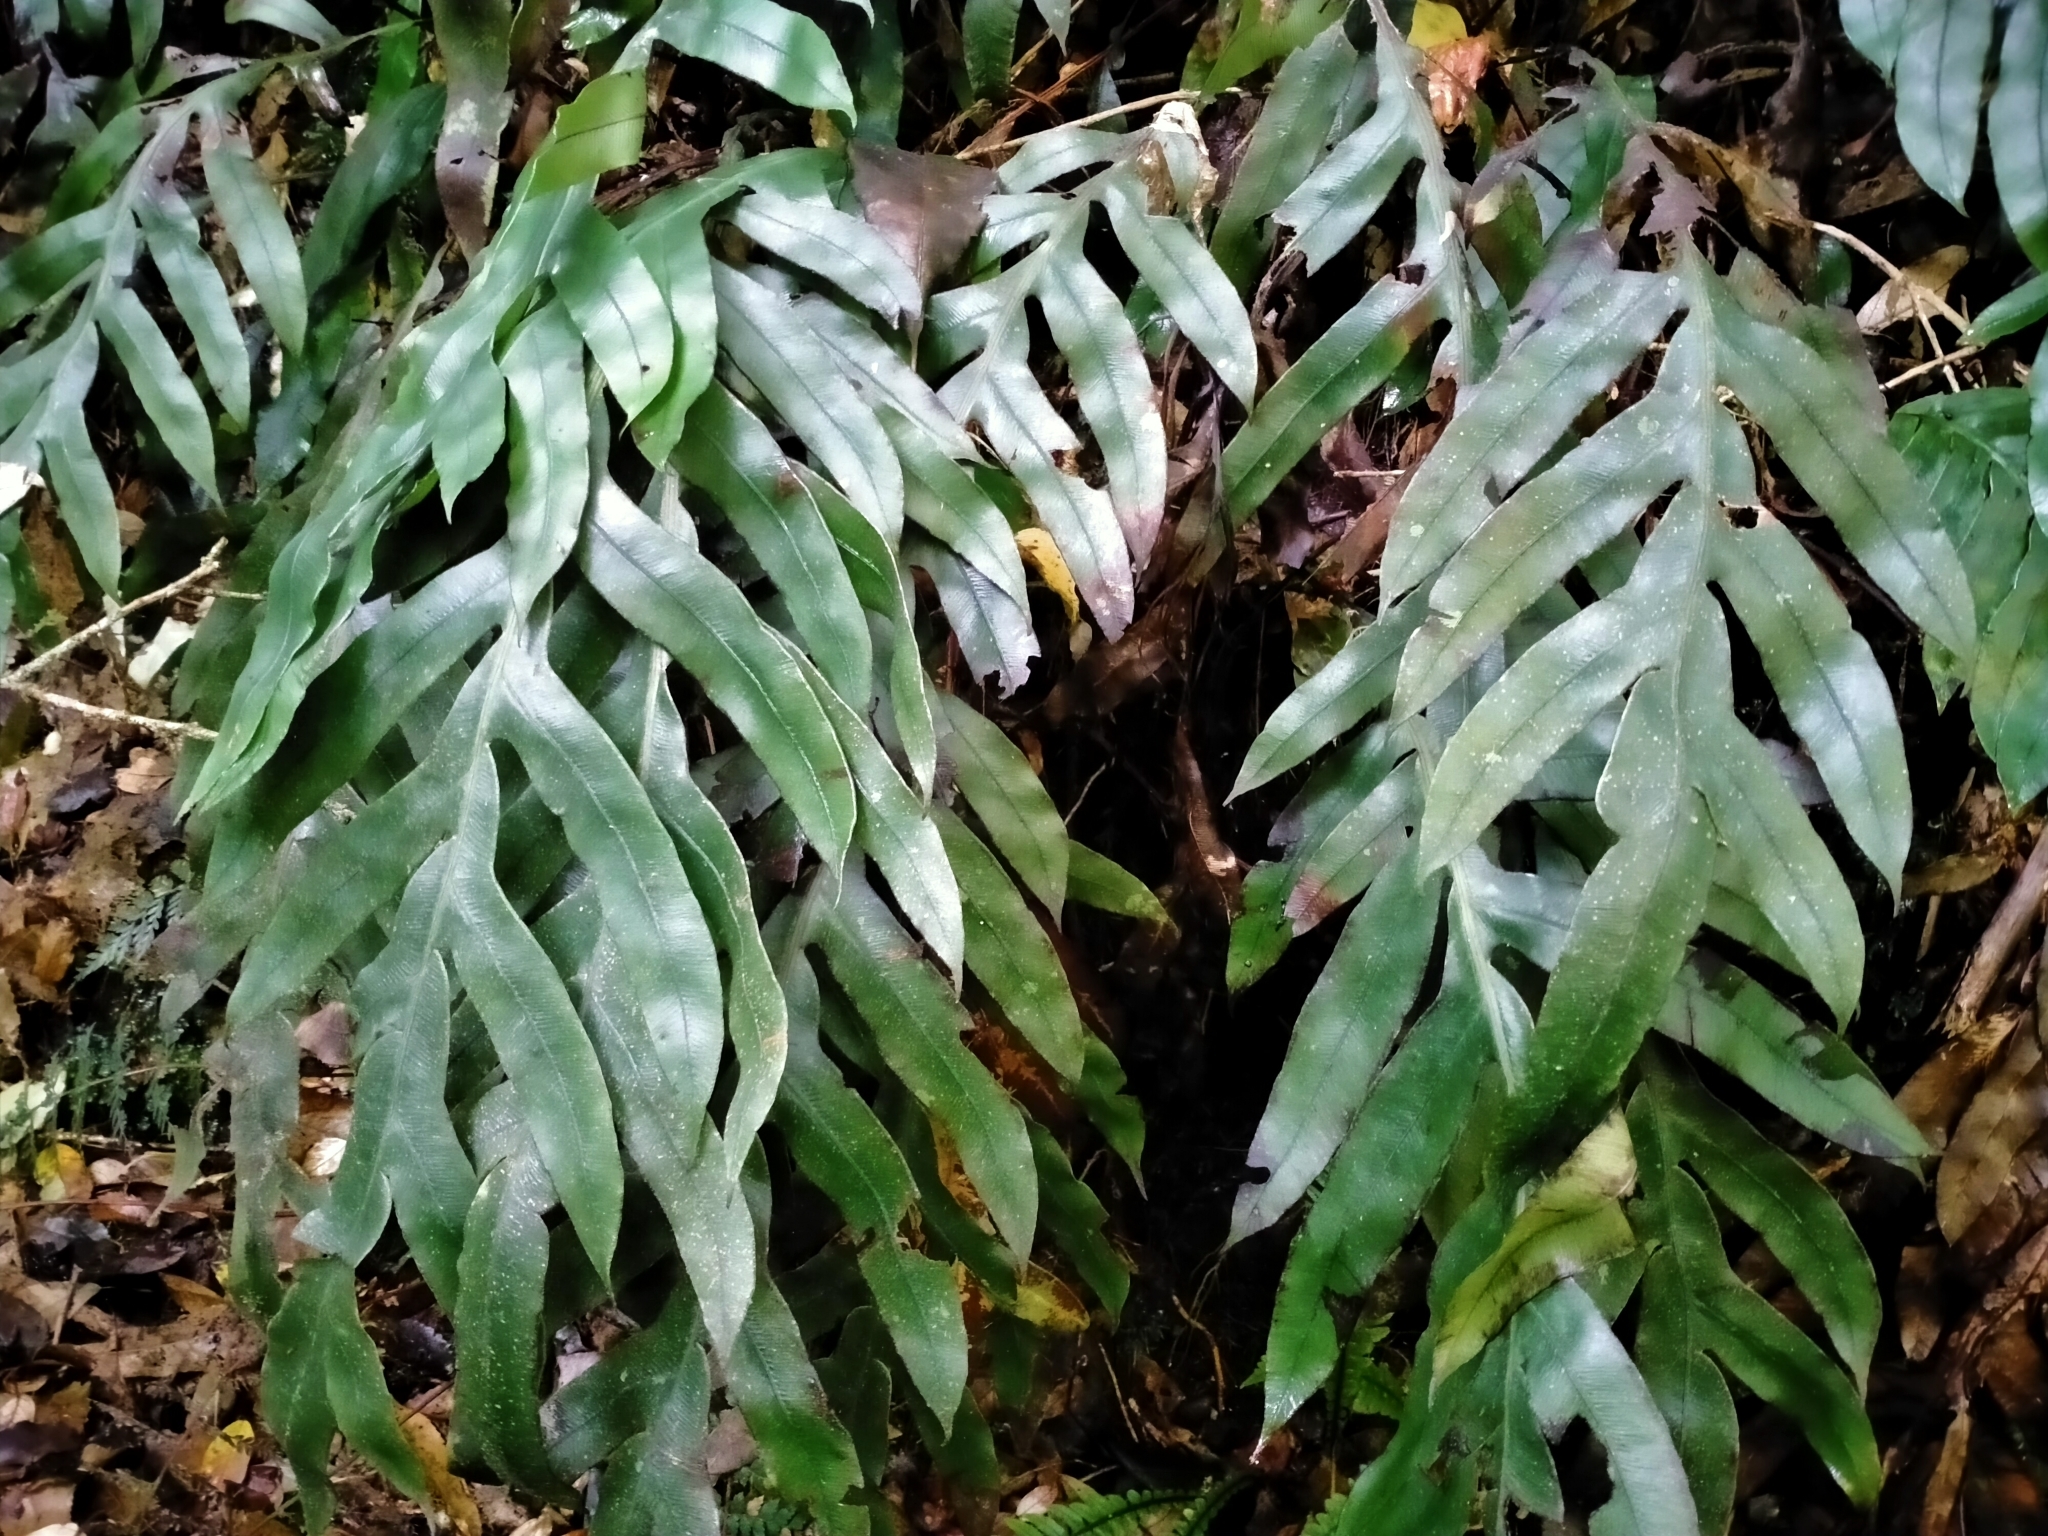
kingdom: Plantae
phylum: Tracheophyta
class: Polypodiopsida
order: Polypodiales
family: Blechnaceae
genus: Austroblechnum
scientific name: Austroblechnum colensoi
